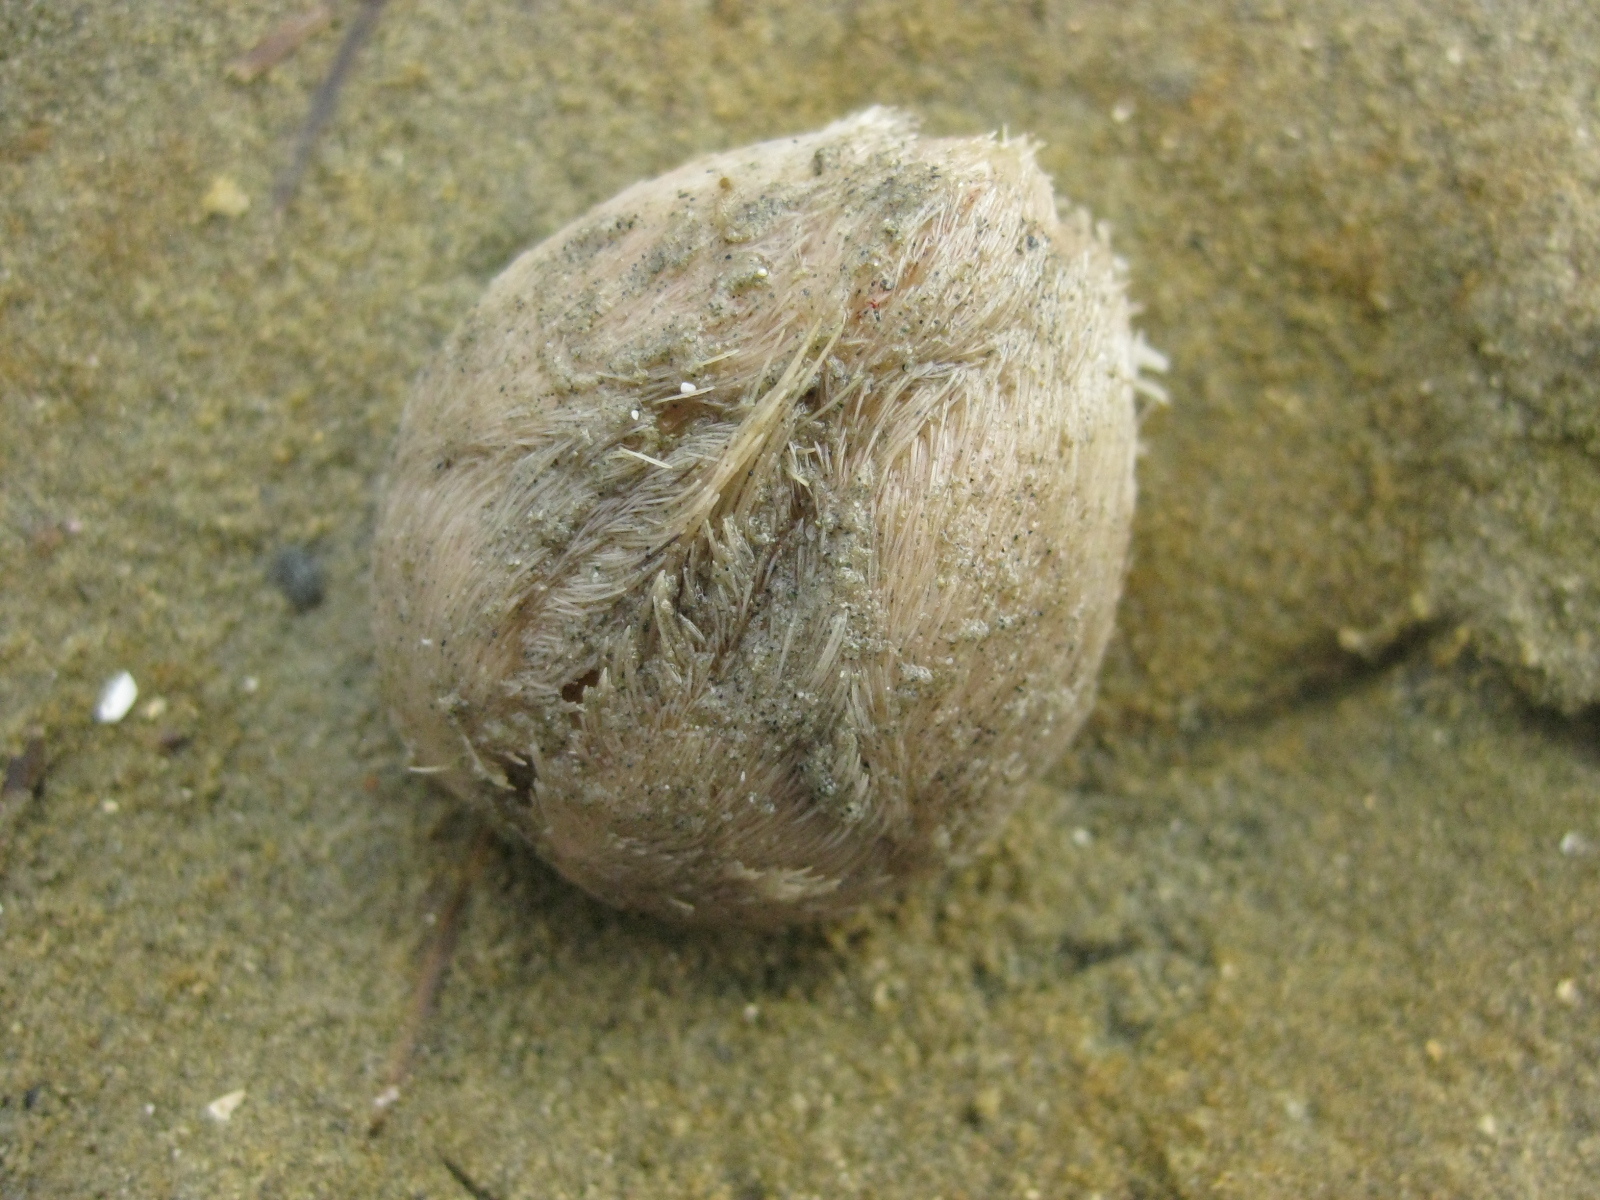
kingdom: Animalia
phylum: Echinodermata
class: Echinoidea
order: Spatangoida
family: Loveniidae
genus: Echinocardium
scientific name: Echinocardium cordatum
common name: Heart-urchin
